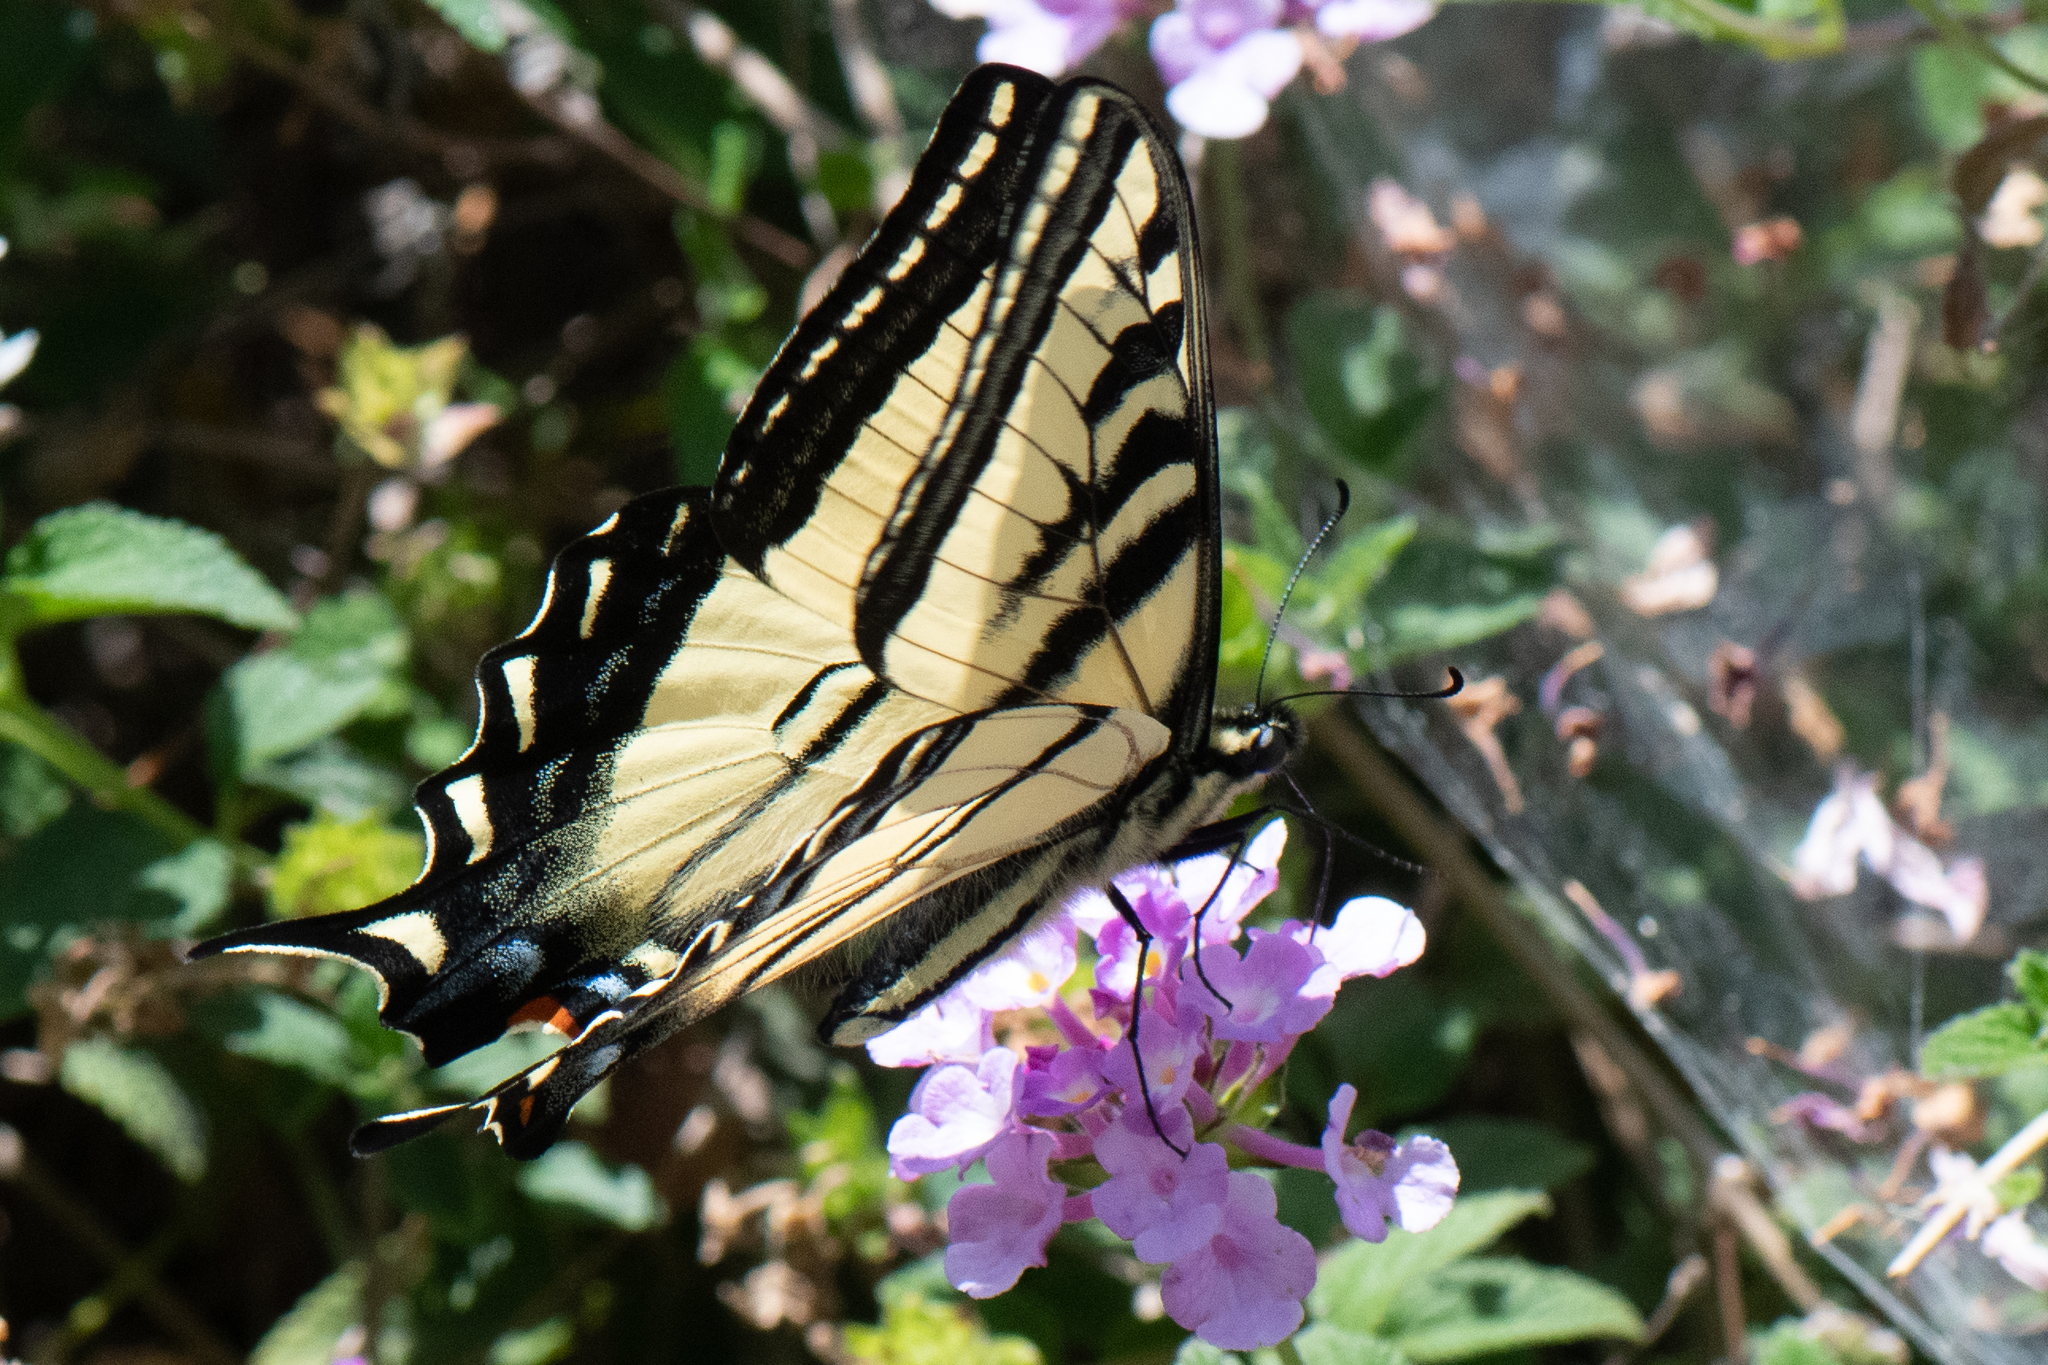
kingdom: Animalia
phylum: Arthropoda
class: Insecta
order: Lepidoptera
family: Papilionidae
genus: Papilio
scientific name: Papilio rutulus
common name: Western tiger swallowtail
